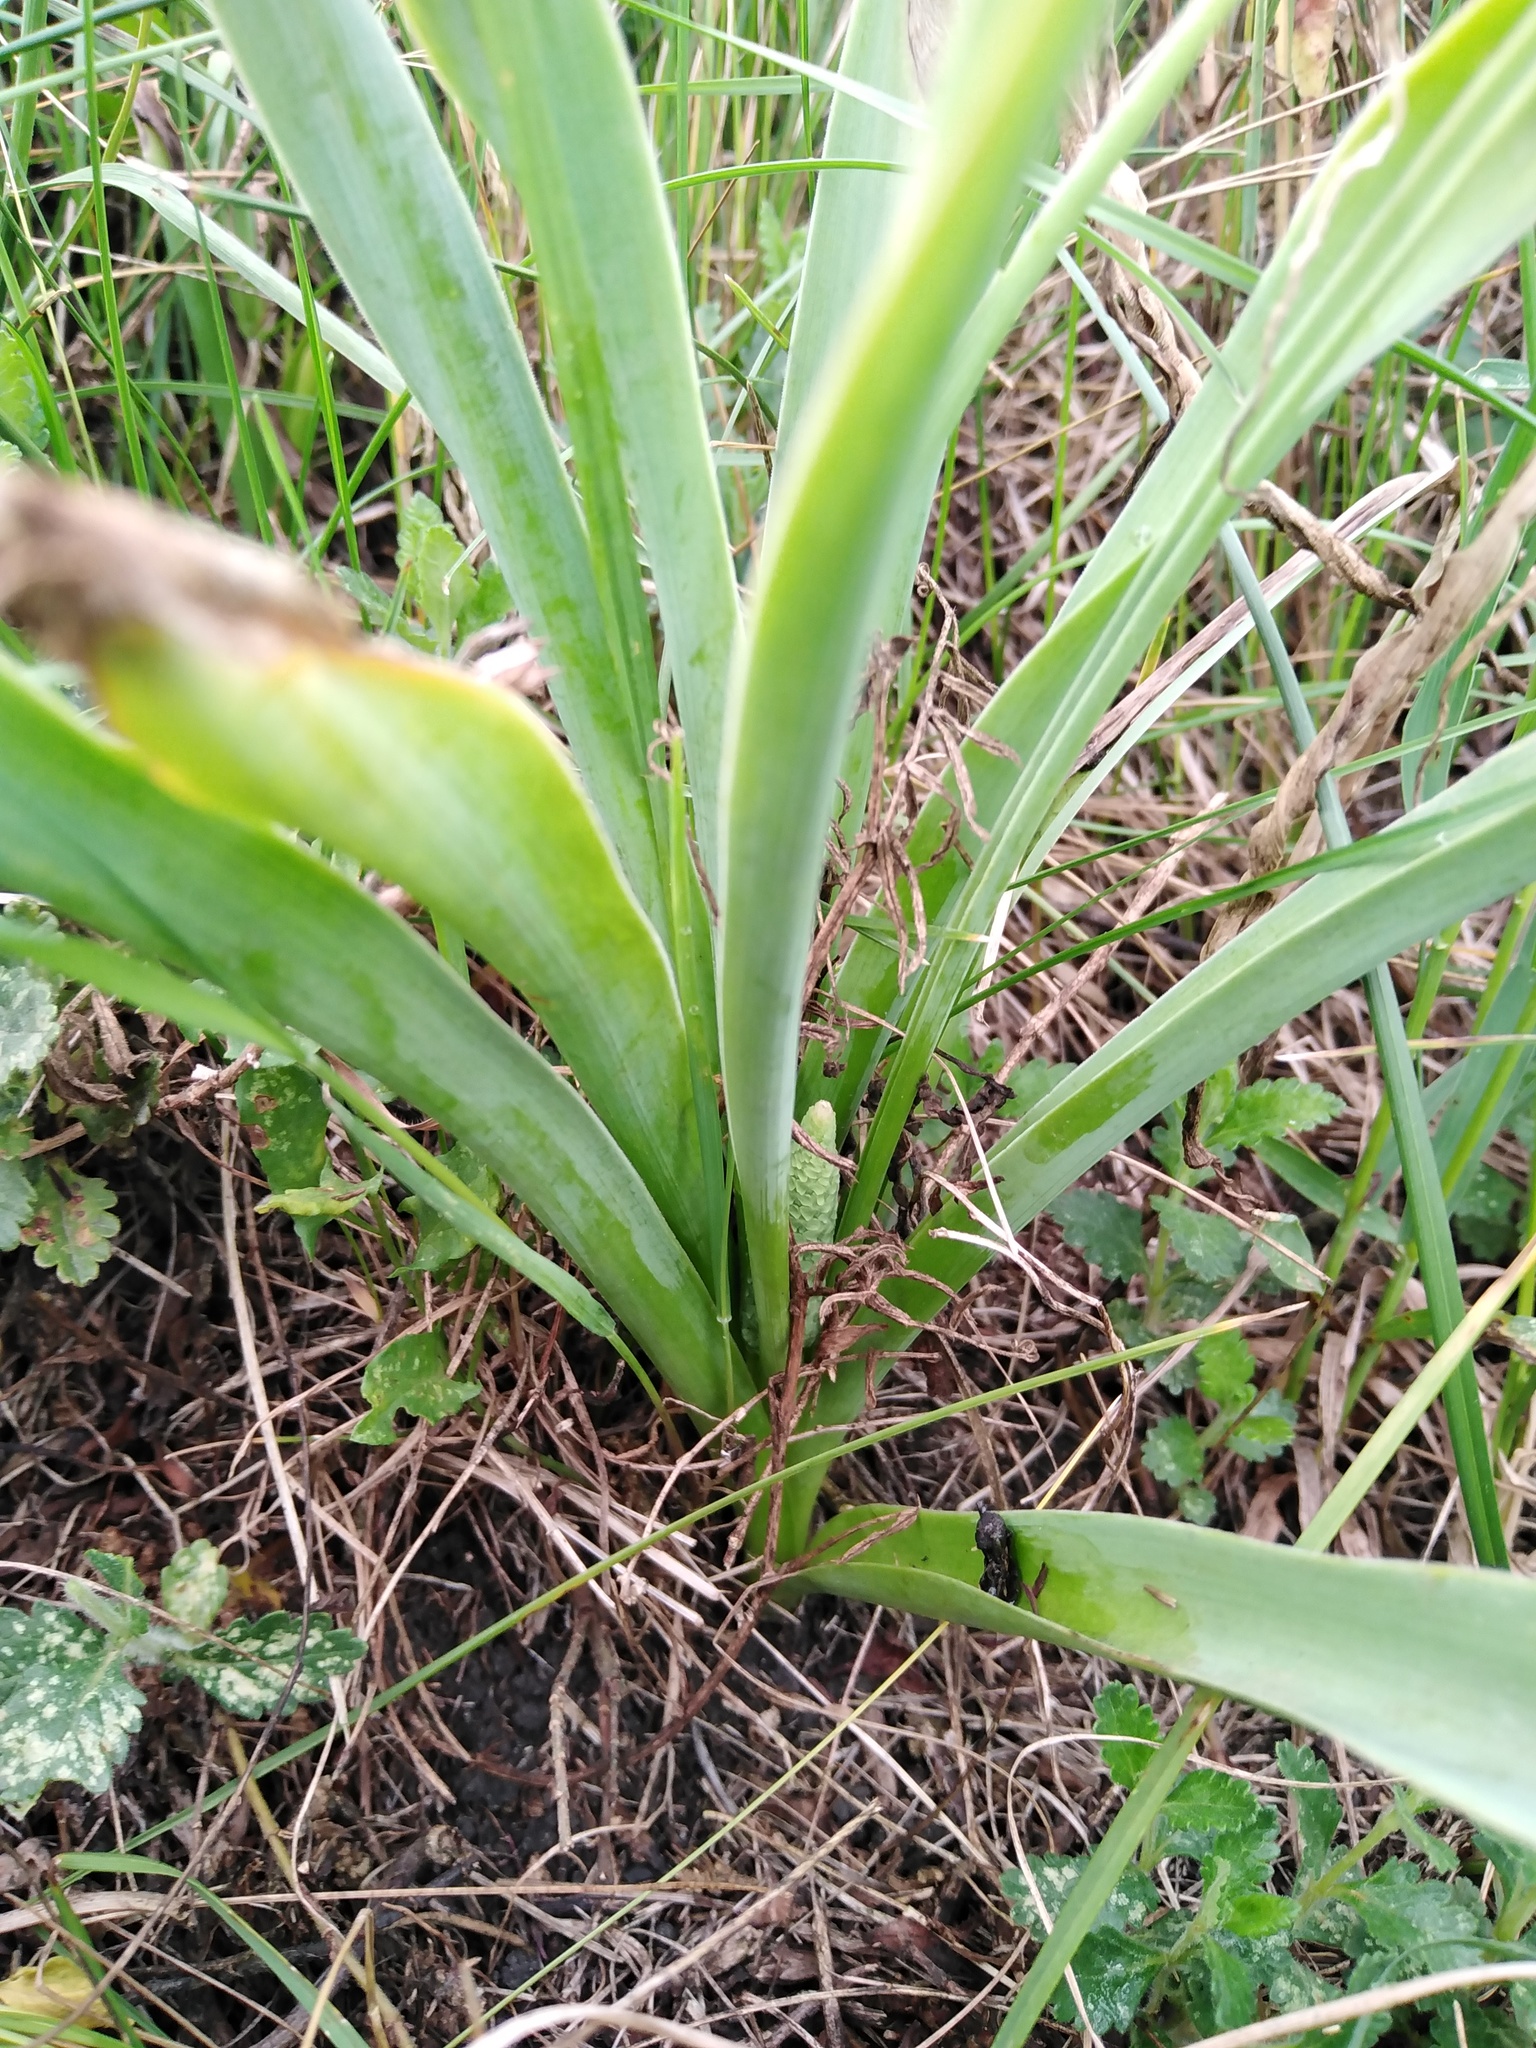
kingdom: Plantae
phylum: Tracheophyta
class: Liliopsida
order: Asparagales
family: Asparagaceae
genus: Muscari
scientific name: Muscari comosum
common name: Tassel hyacinth
